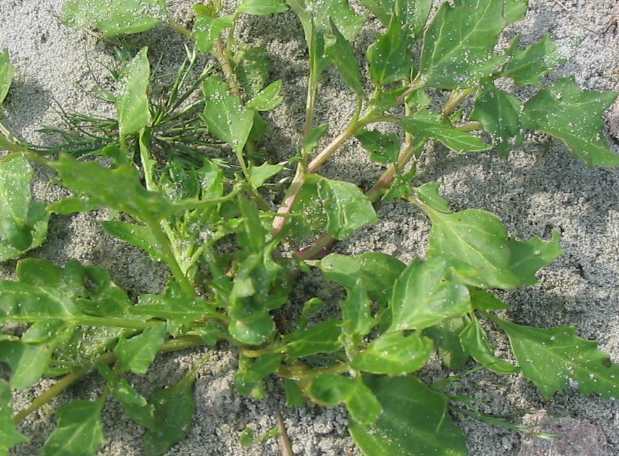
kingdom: Plantae
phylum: Tracheophyta
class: Magnoliopsida
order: Caryophyllales
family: Amaranthaceae
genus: Oxybasis
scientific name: Oxybasis rubra
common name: Red goosefoot
